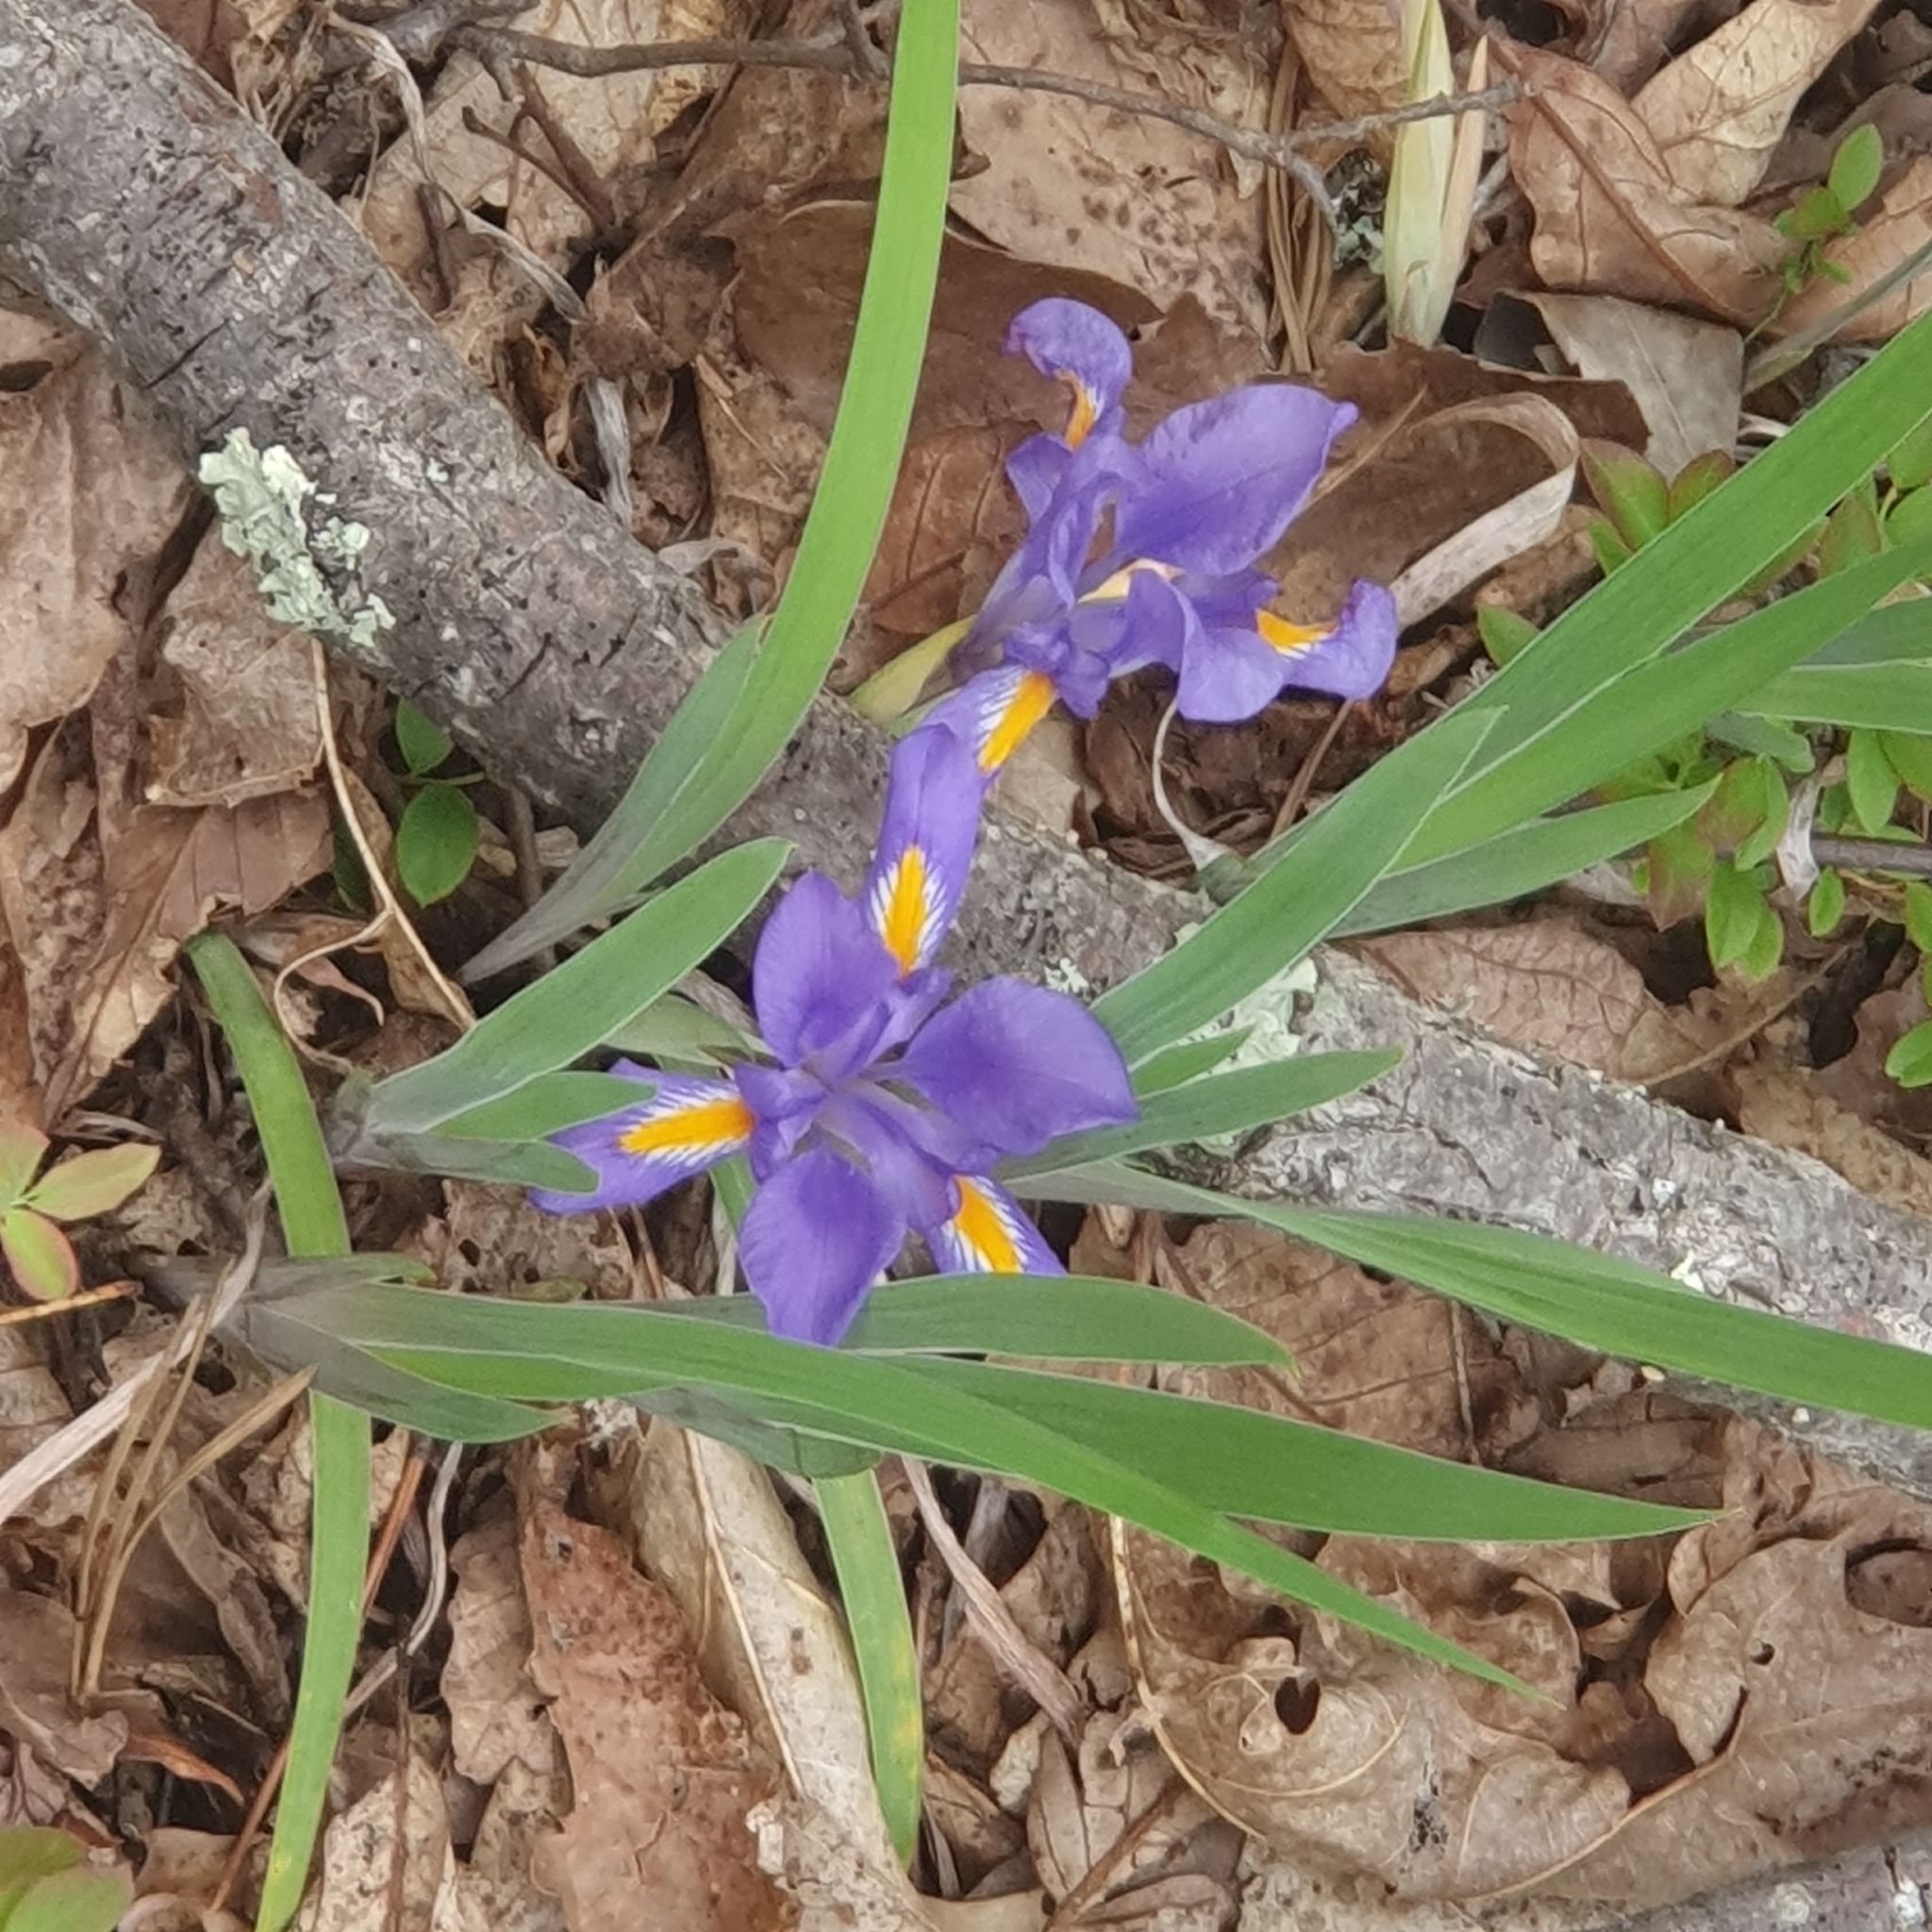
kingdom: Plantae
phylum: Tracheophyta
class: Liliopsida
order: Asparagales
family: Iridaceae
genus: Iris
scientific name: Iris verna
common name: Dwarf iris
